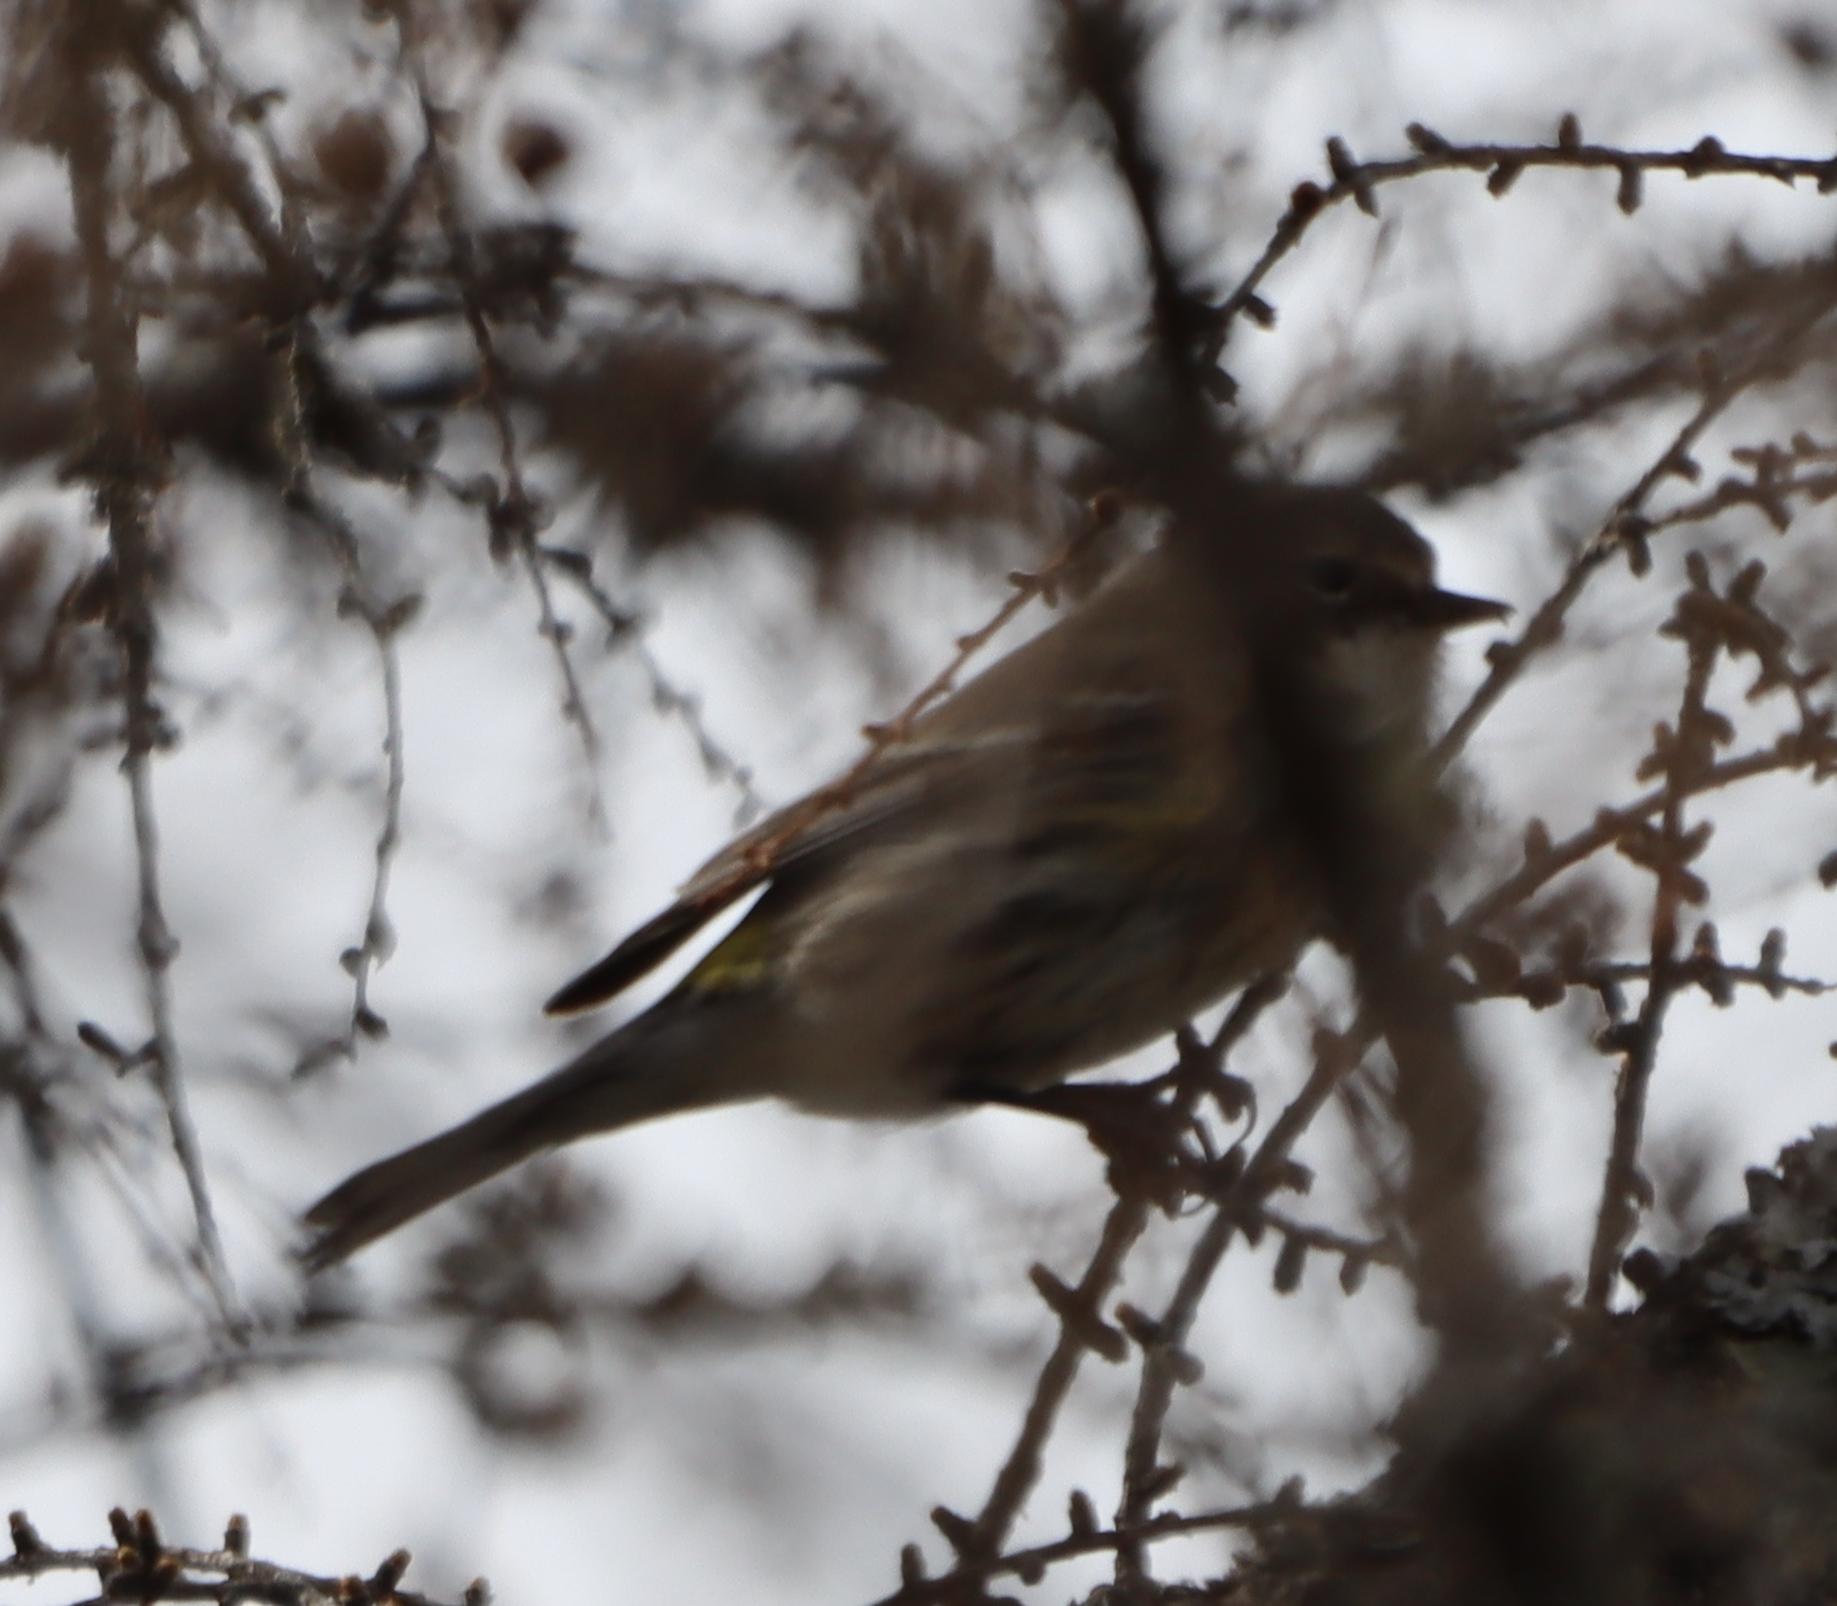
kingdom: Animalia
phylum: Chordata
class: Aves
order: Passeriformes
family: Parulidae
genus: Setophaga
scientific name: Setophaga coronata
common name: Myrtle warbler
